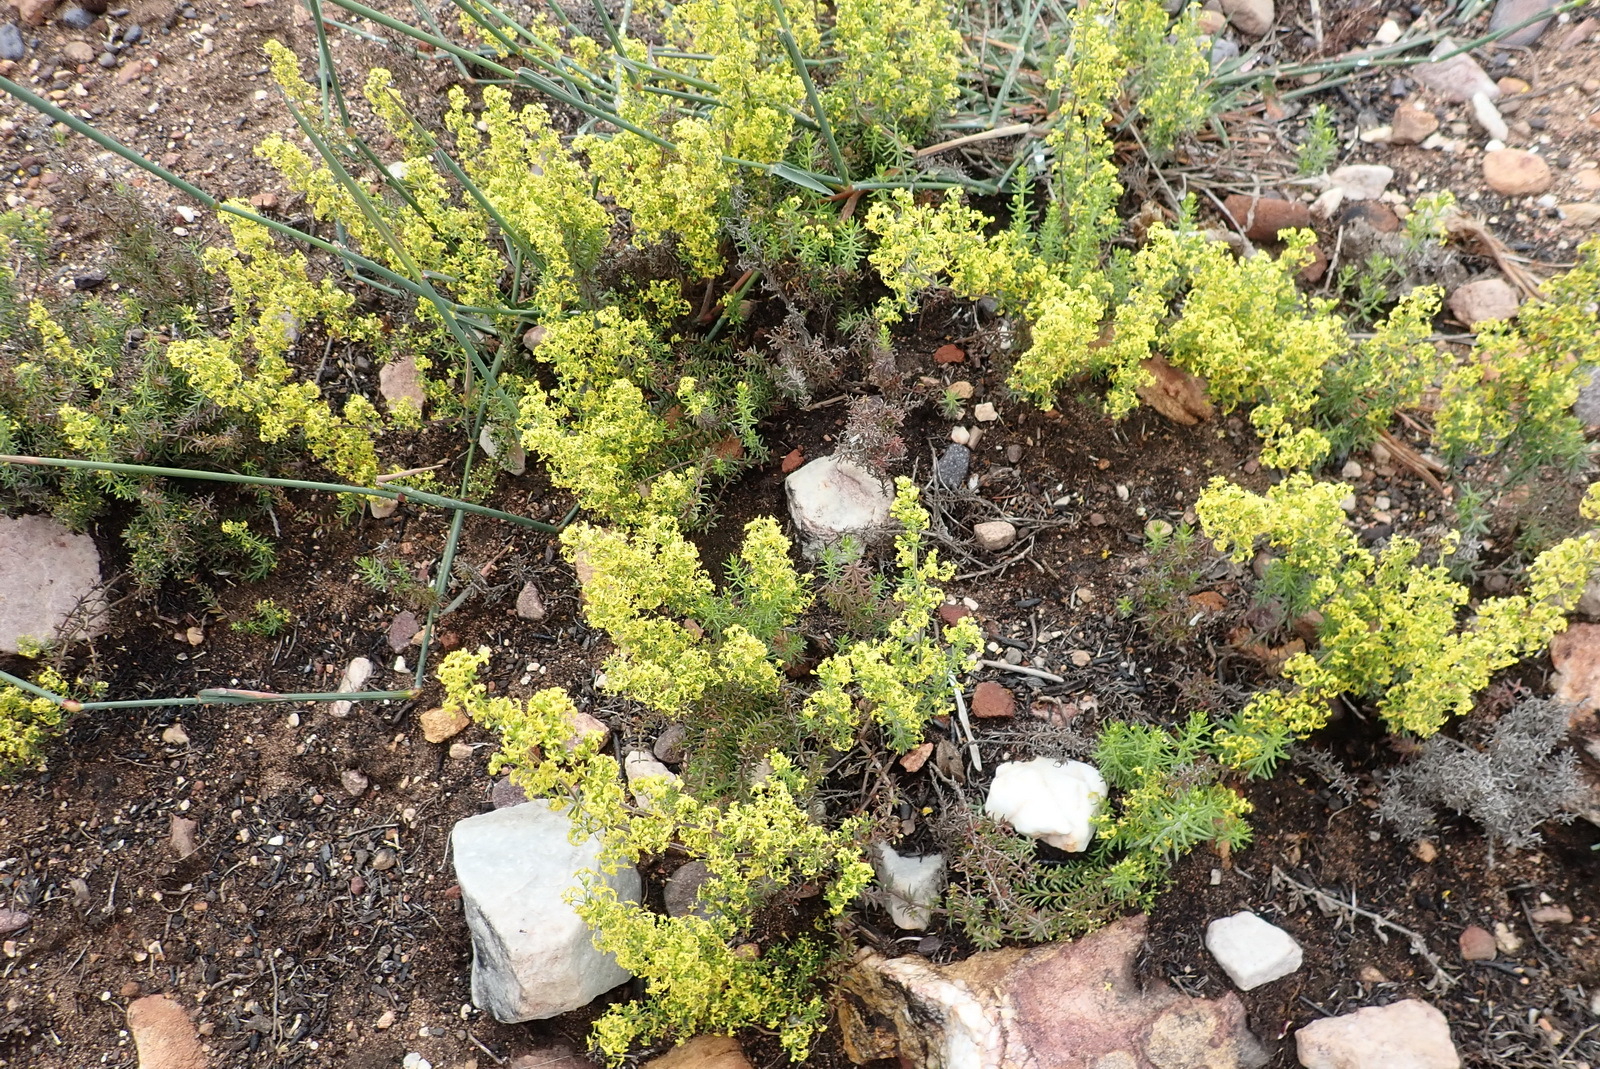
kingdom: Plantae
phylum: Tracheophyta
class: Magnoliopsida
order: Gentianales
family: Rubiaceae
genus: Galium
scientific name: Galium capense
